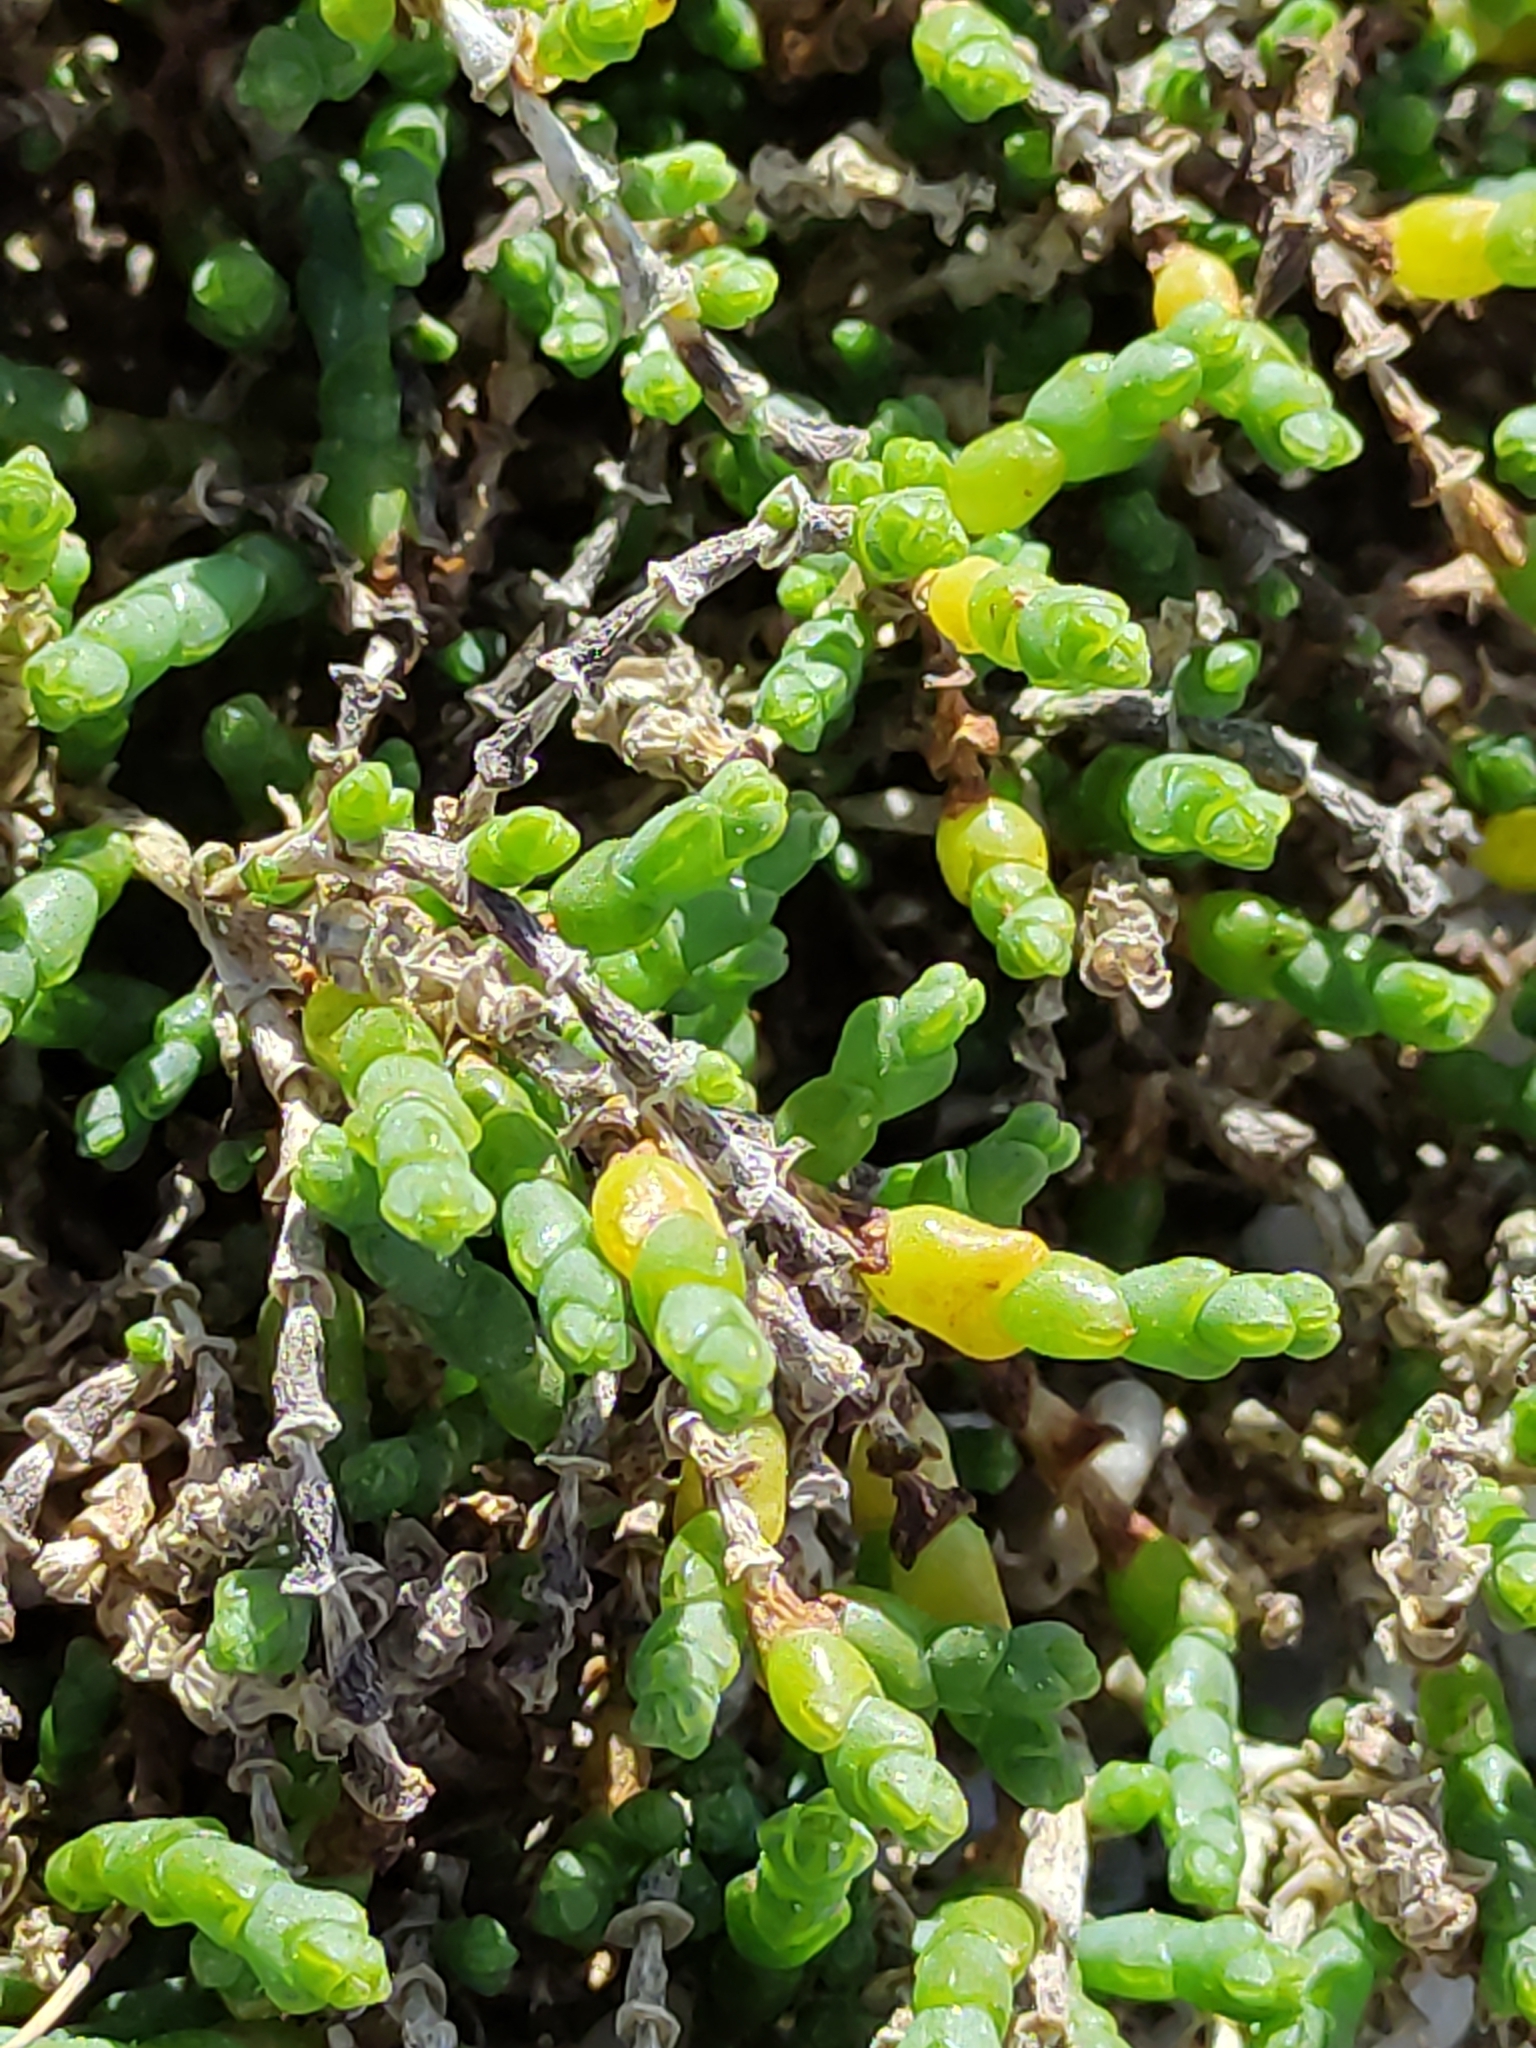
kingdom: Plantae
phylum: Tracheophyta
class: Magnoliopsida
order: Caryophyllales
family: Amaranthaceae
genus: Salicornia
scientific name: Salicornia quinqueflora
